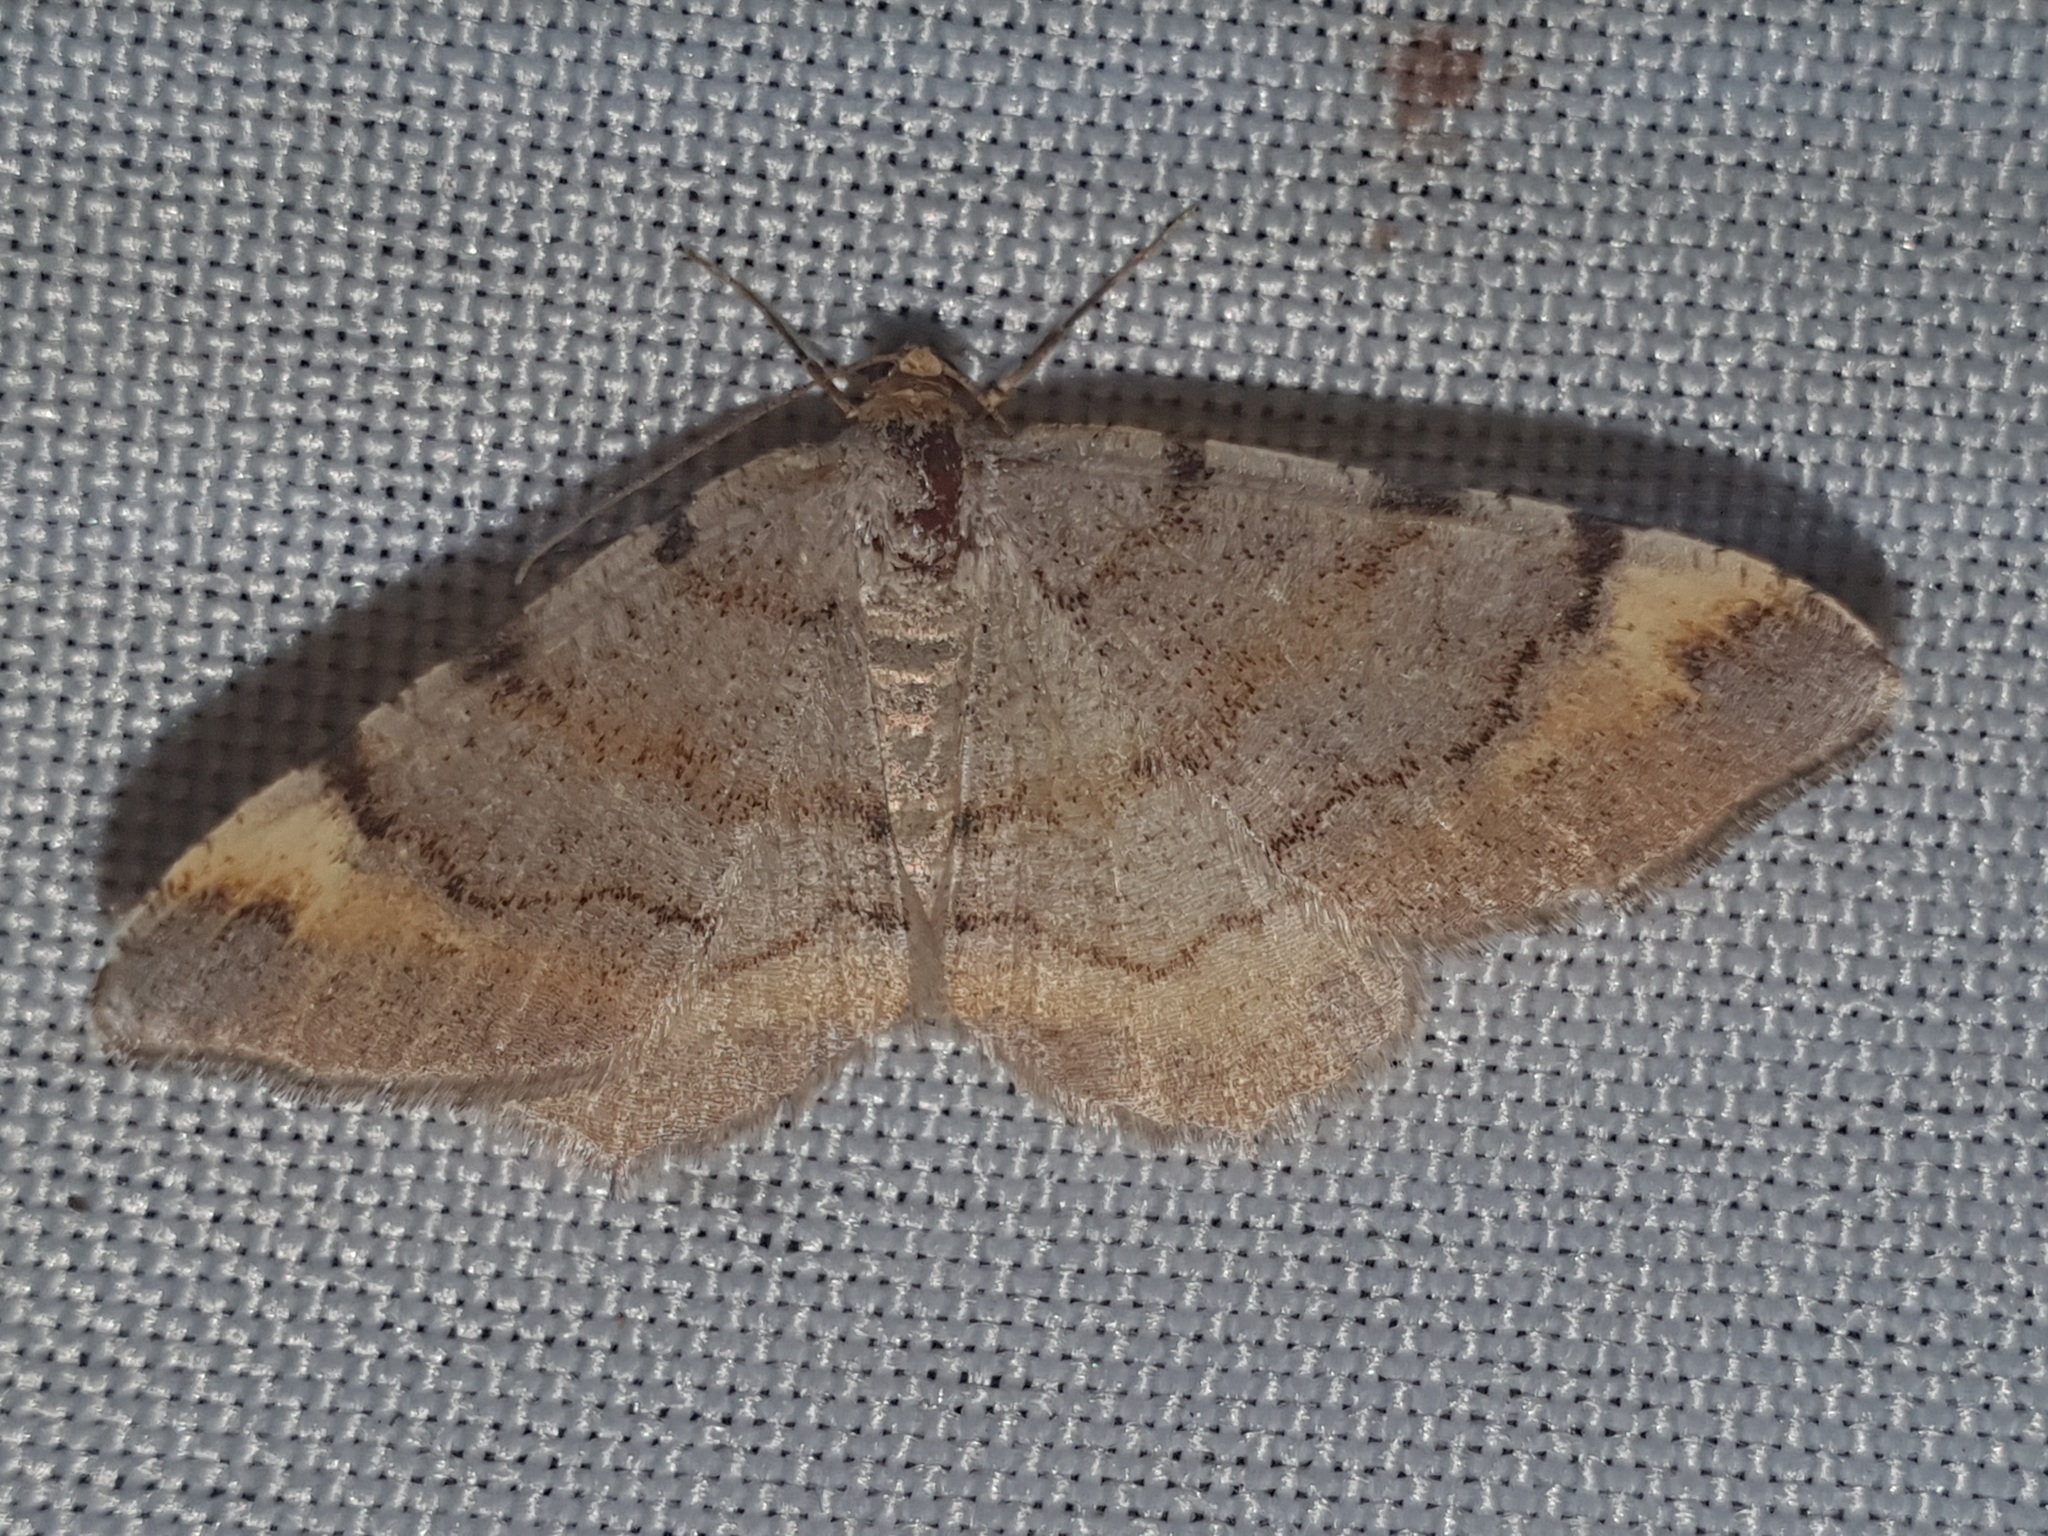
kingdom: Animalia
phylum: Arthropoda
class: Insecta
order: Lepidoptera
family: Geometridae
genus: Macaria
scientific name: Macaria liturata
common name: Tawny-barred angle
